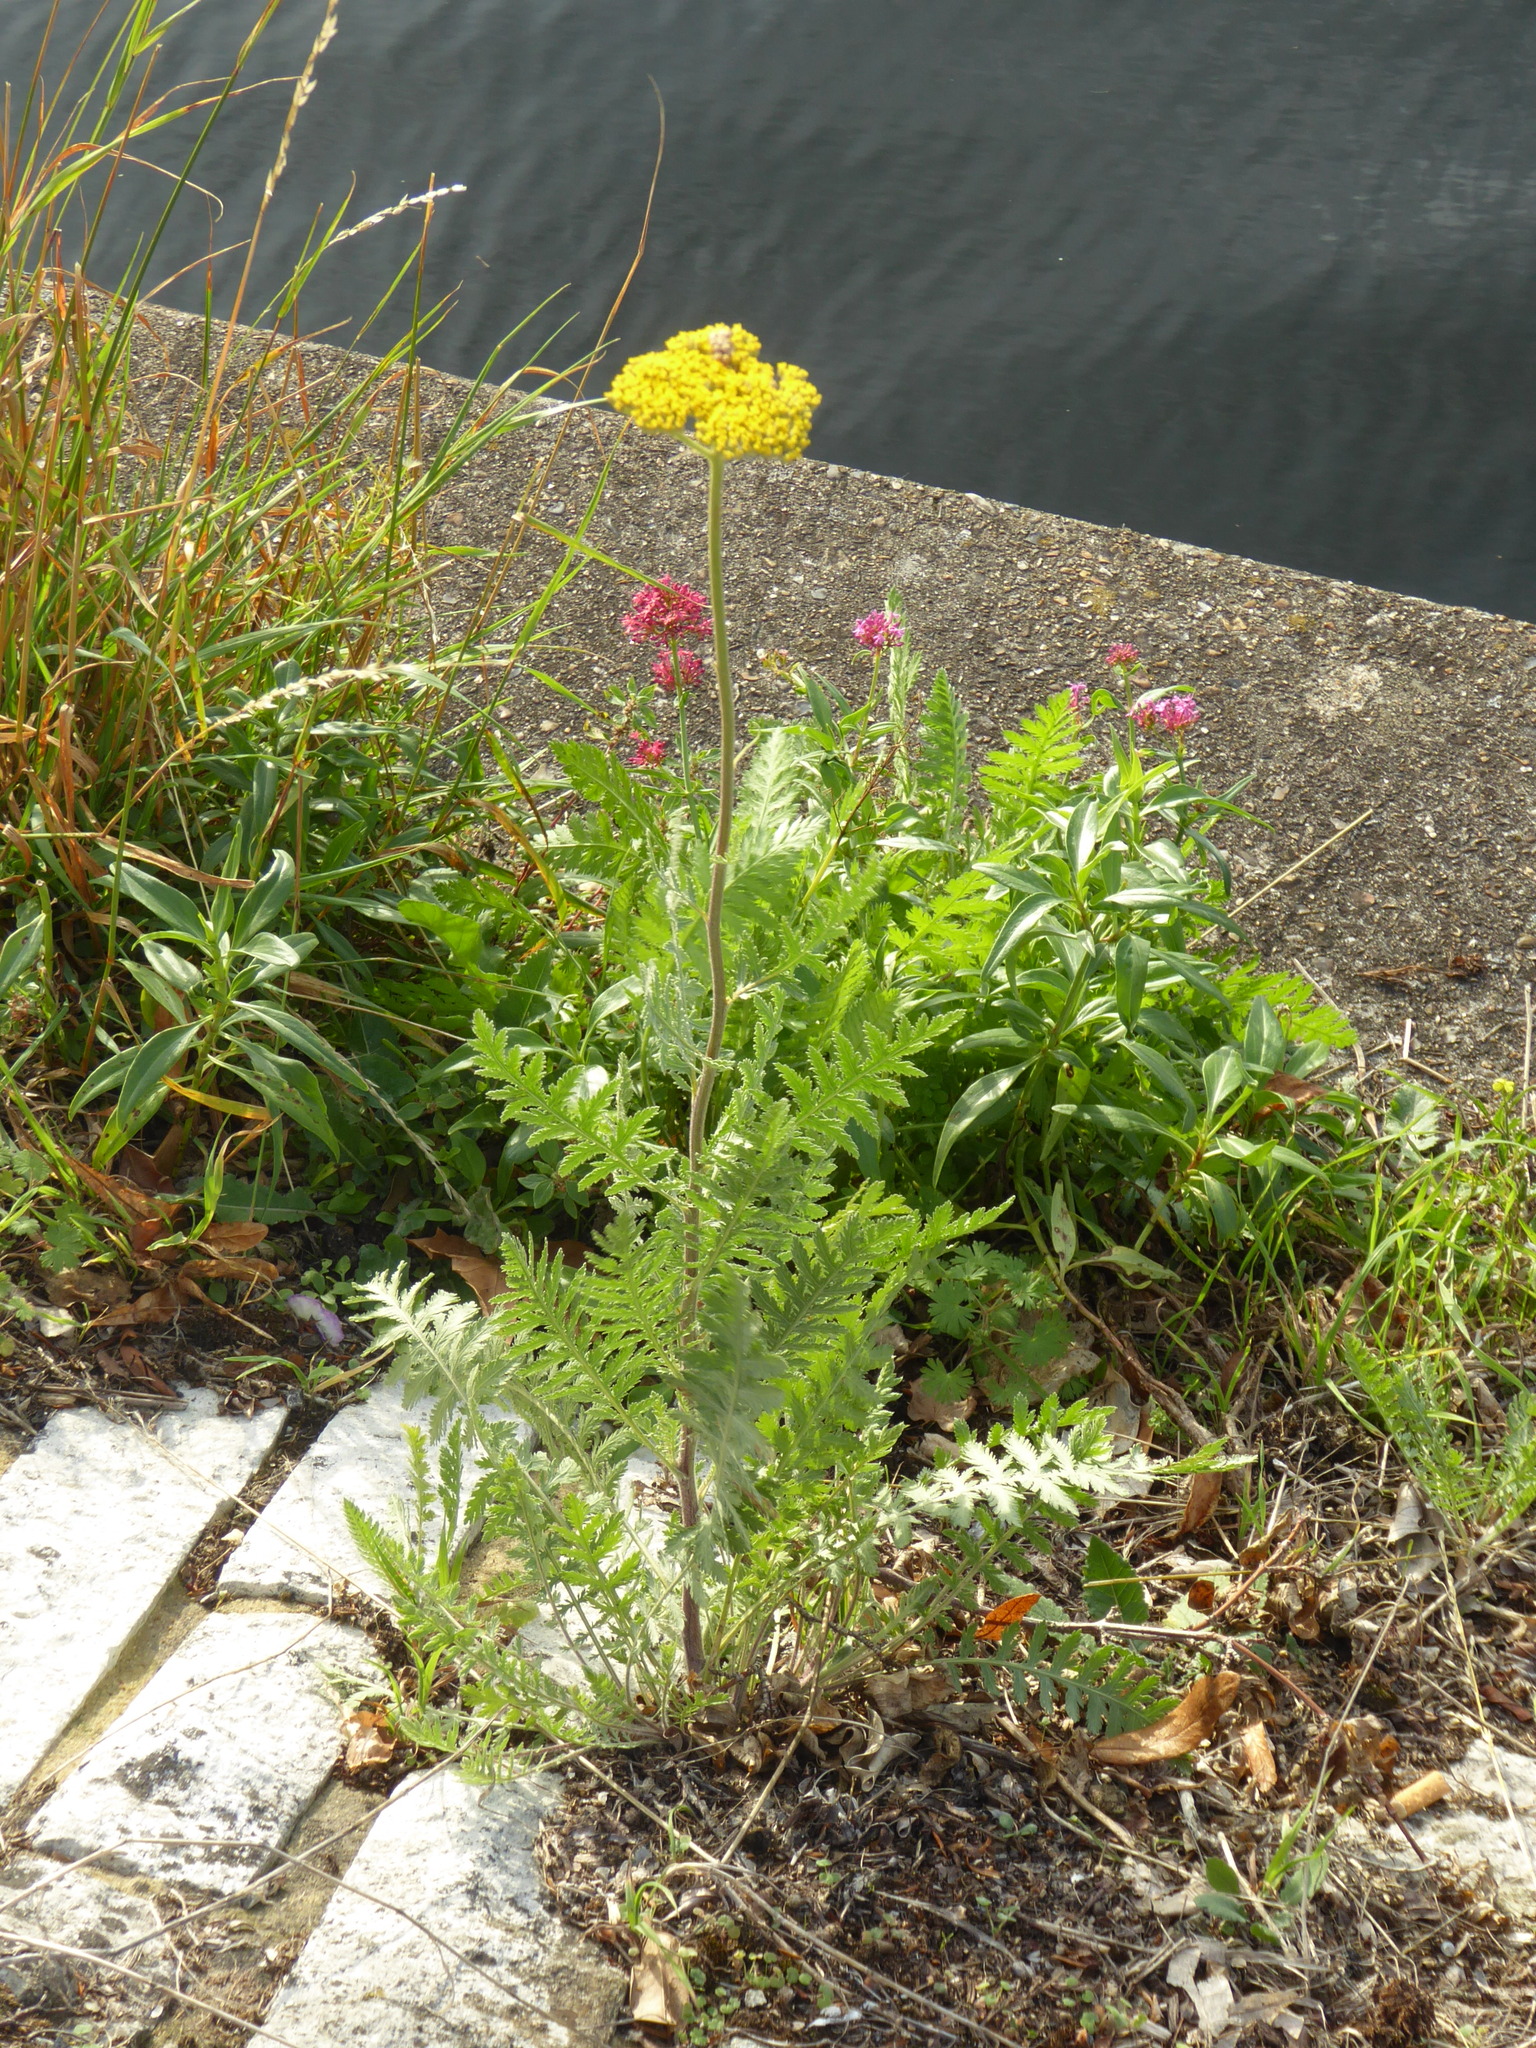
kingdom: Plantae
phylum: Tracheophyta
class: Magnoliopsida
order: Asterales
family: Asteraceae
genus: Achillea
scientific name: Achillea filipendulina
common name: Fernleaf yarrow
